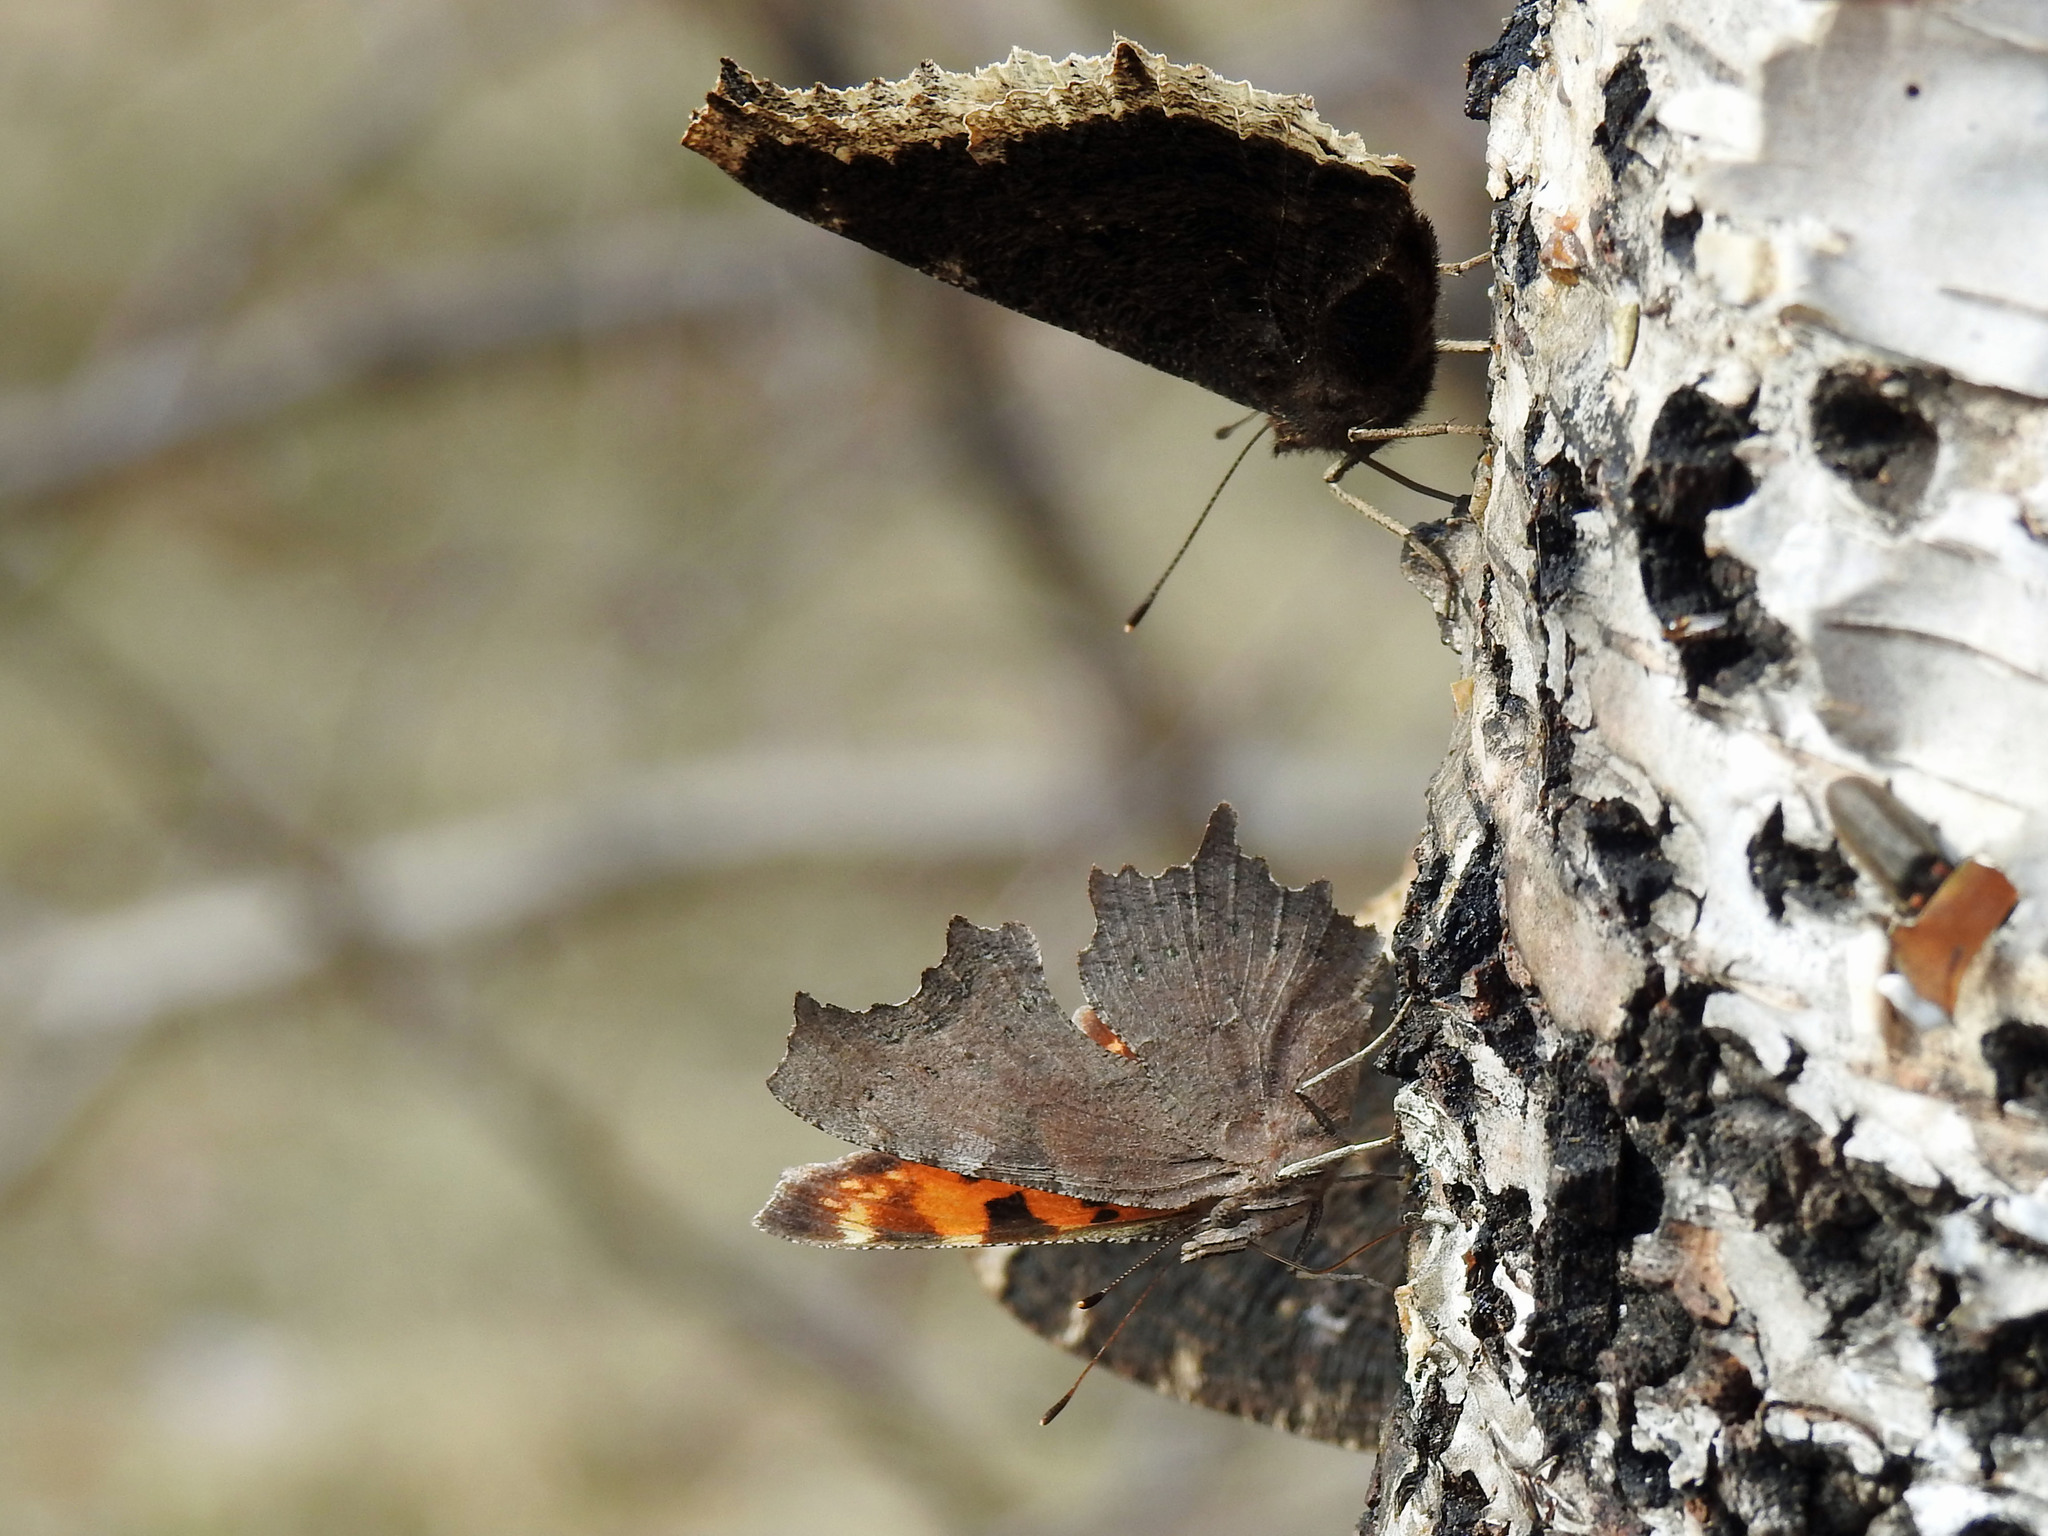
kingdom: Animalia
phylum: Arthropoda
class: Insecta
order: Lepidoptera
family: Nymphalidae
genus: Polygonia
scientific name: Polygonia faunus
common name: Green comma
